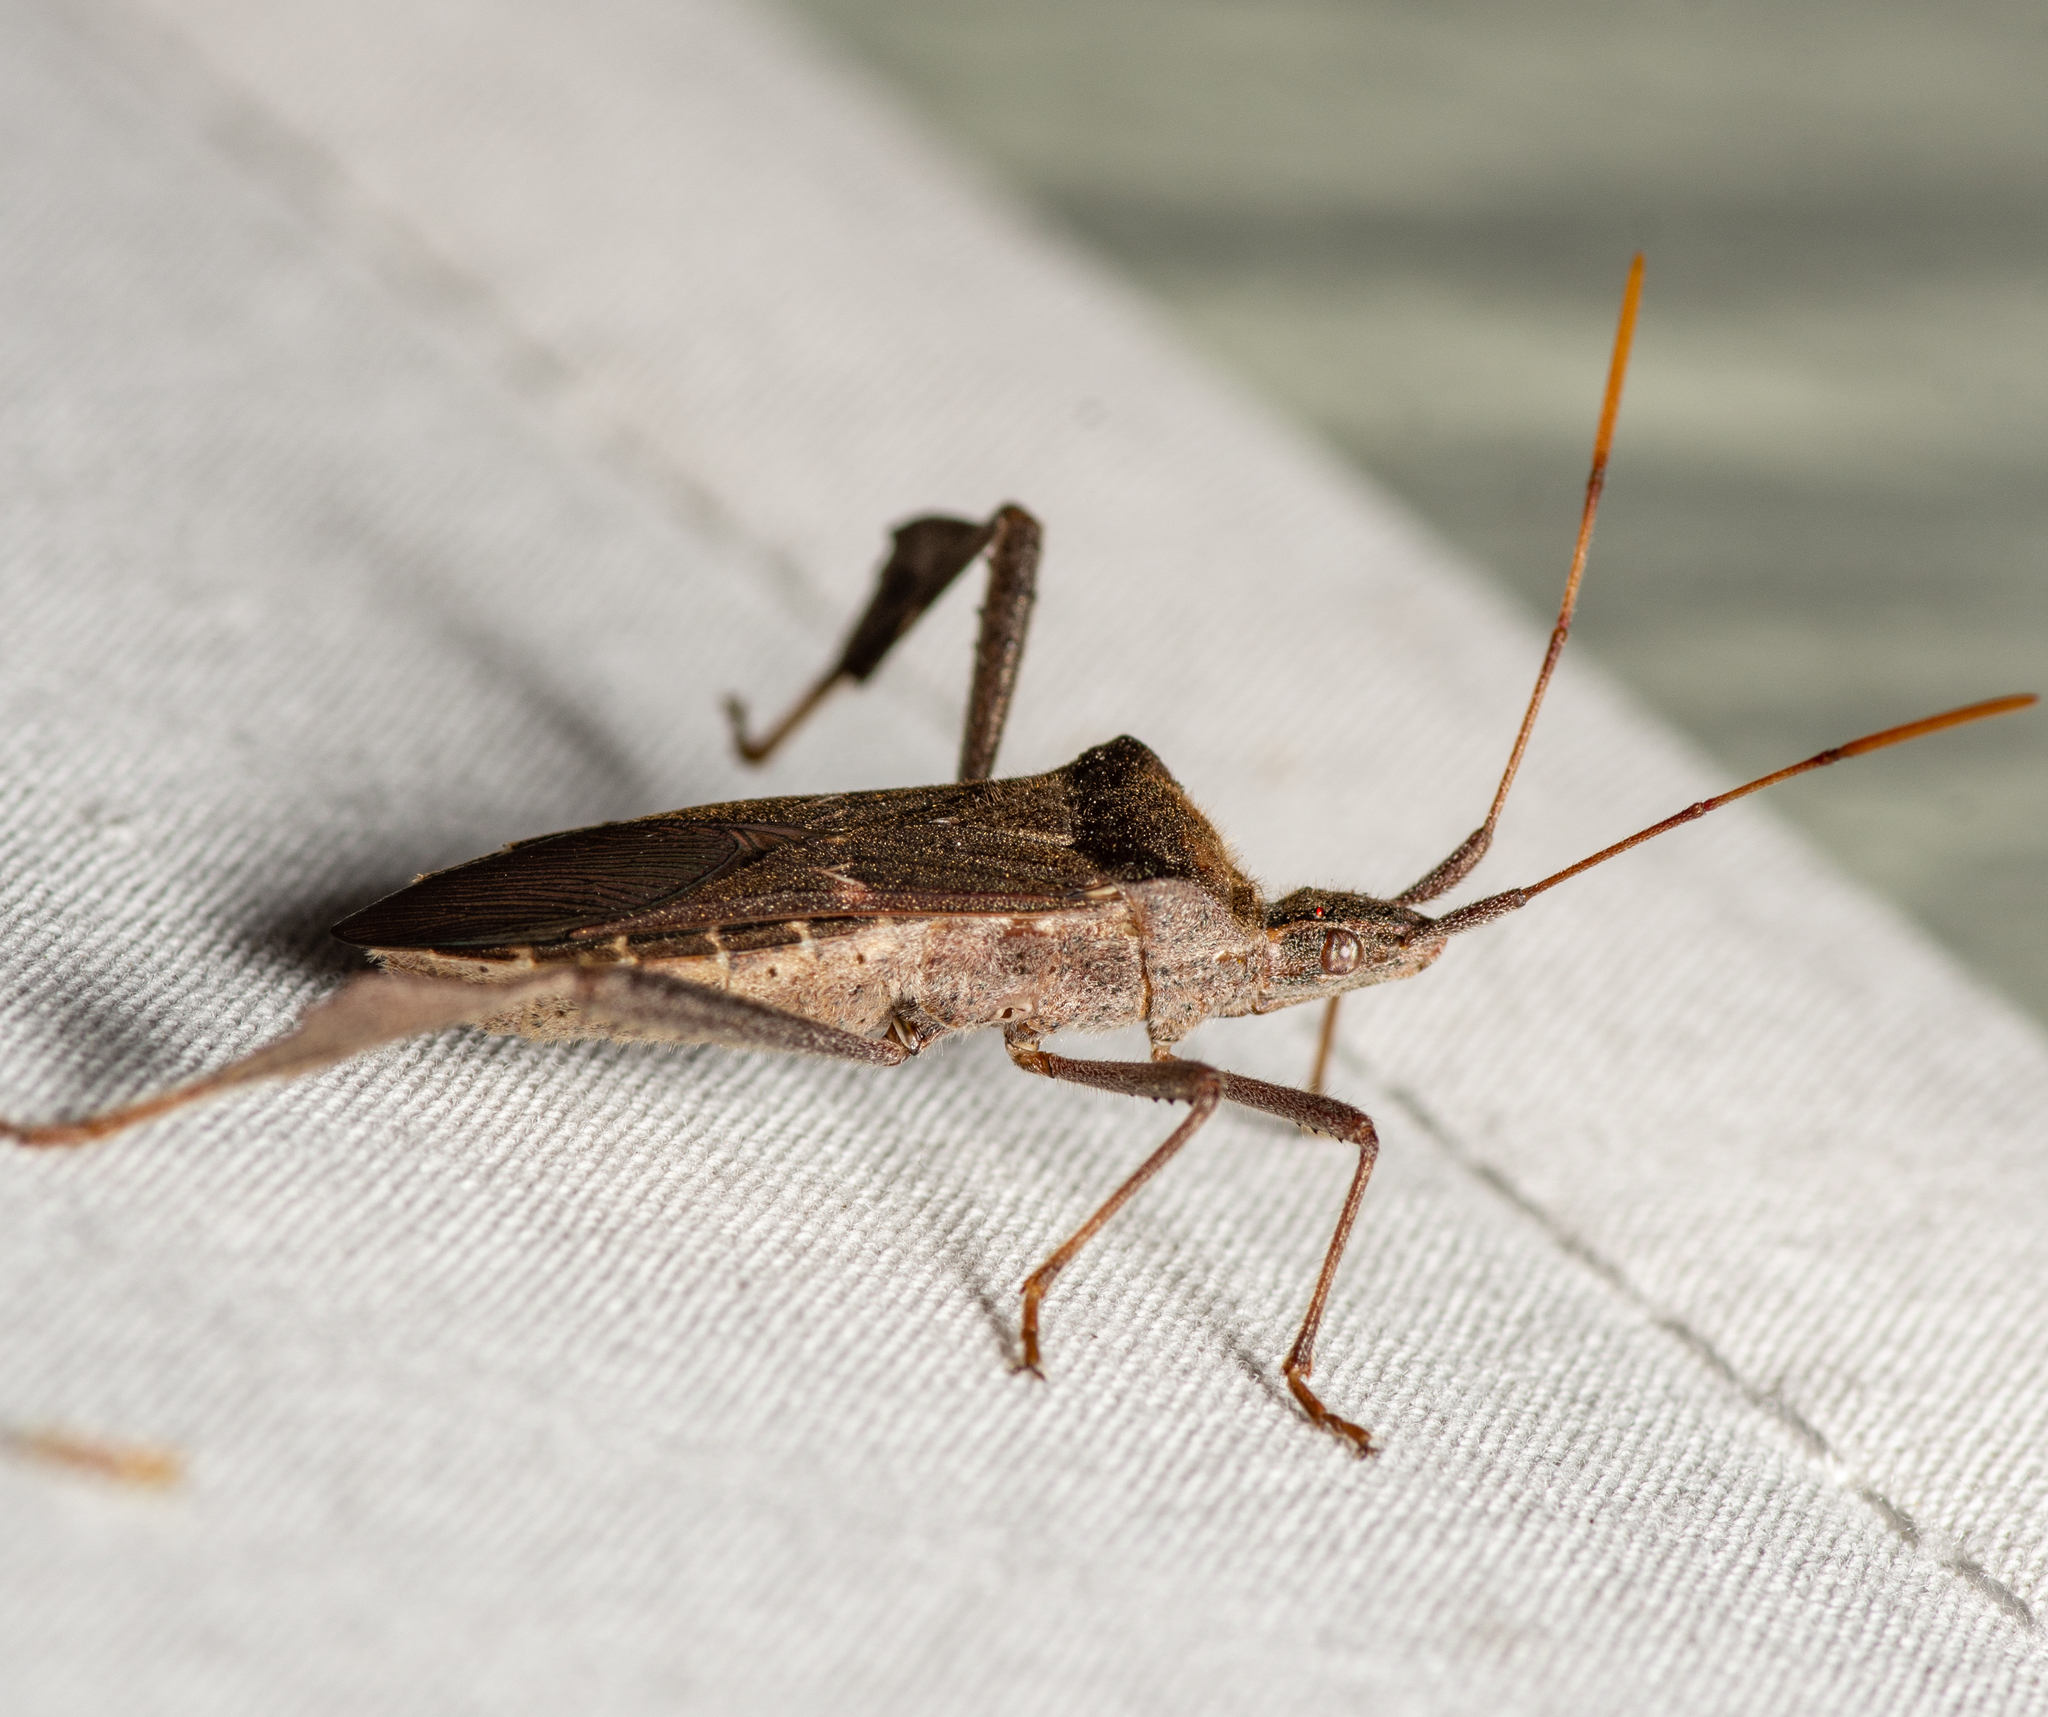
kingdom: Animalia
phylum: Arthropoda
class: Insecta
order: Hemiptera
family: Coreidae
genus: Leptoglossus
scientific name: Leptoglossus zonatus
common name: Large-legged bug
